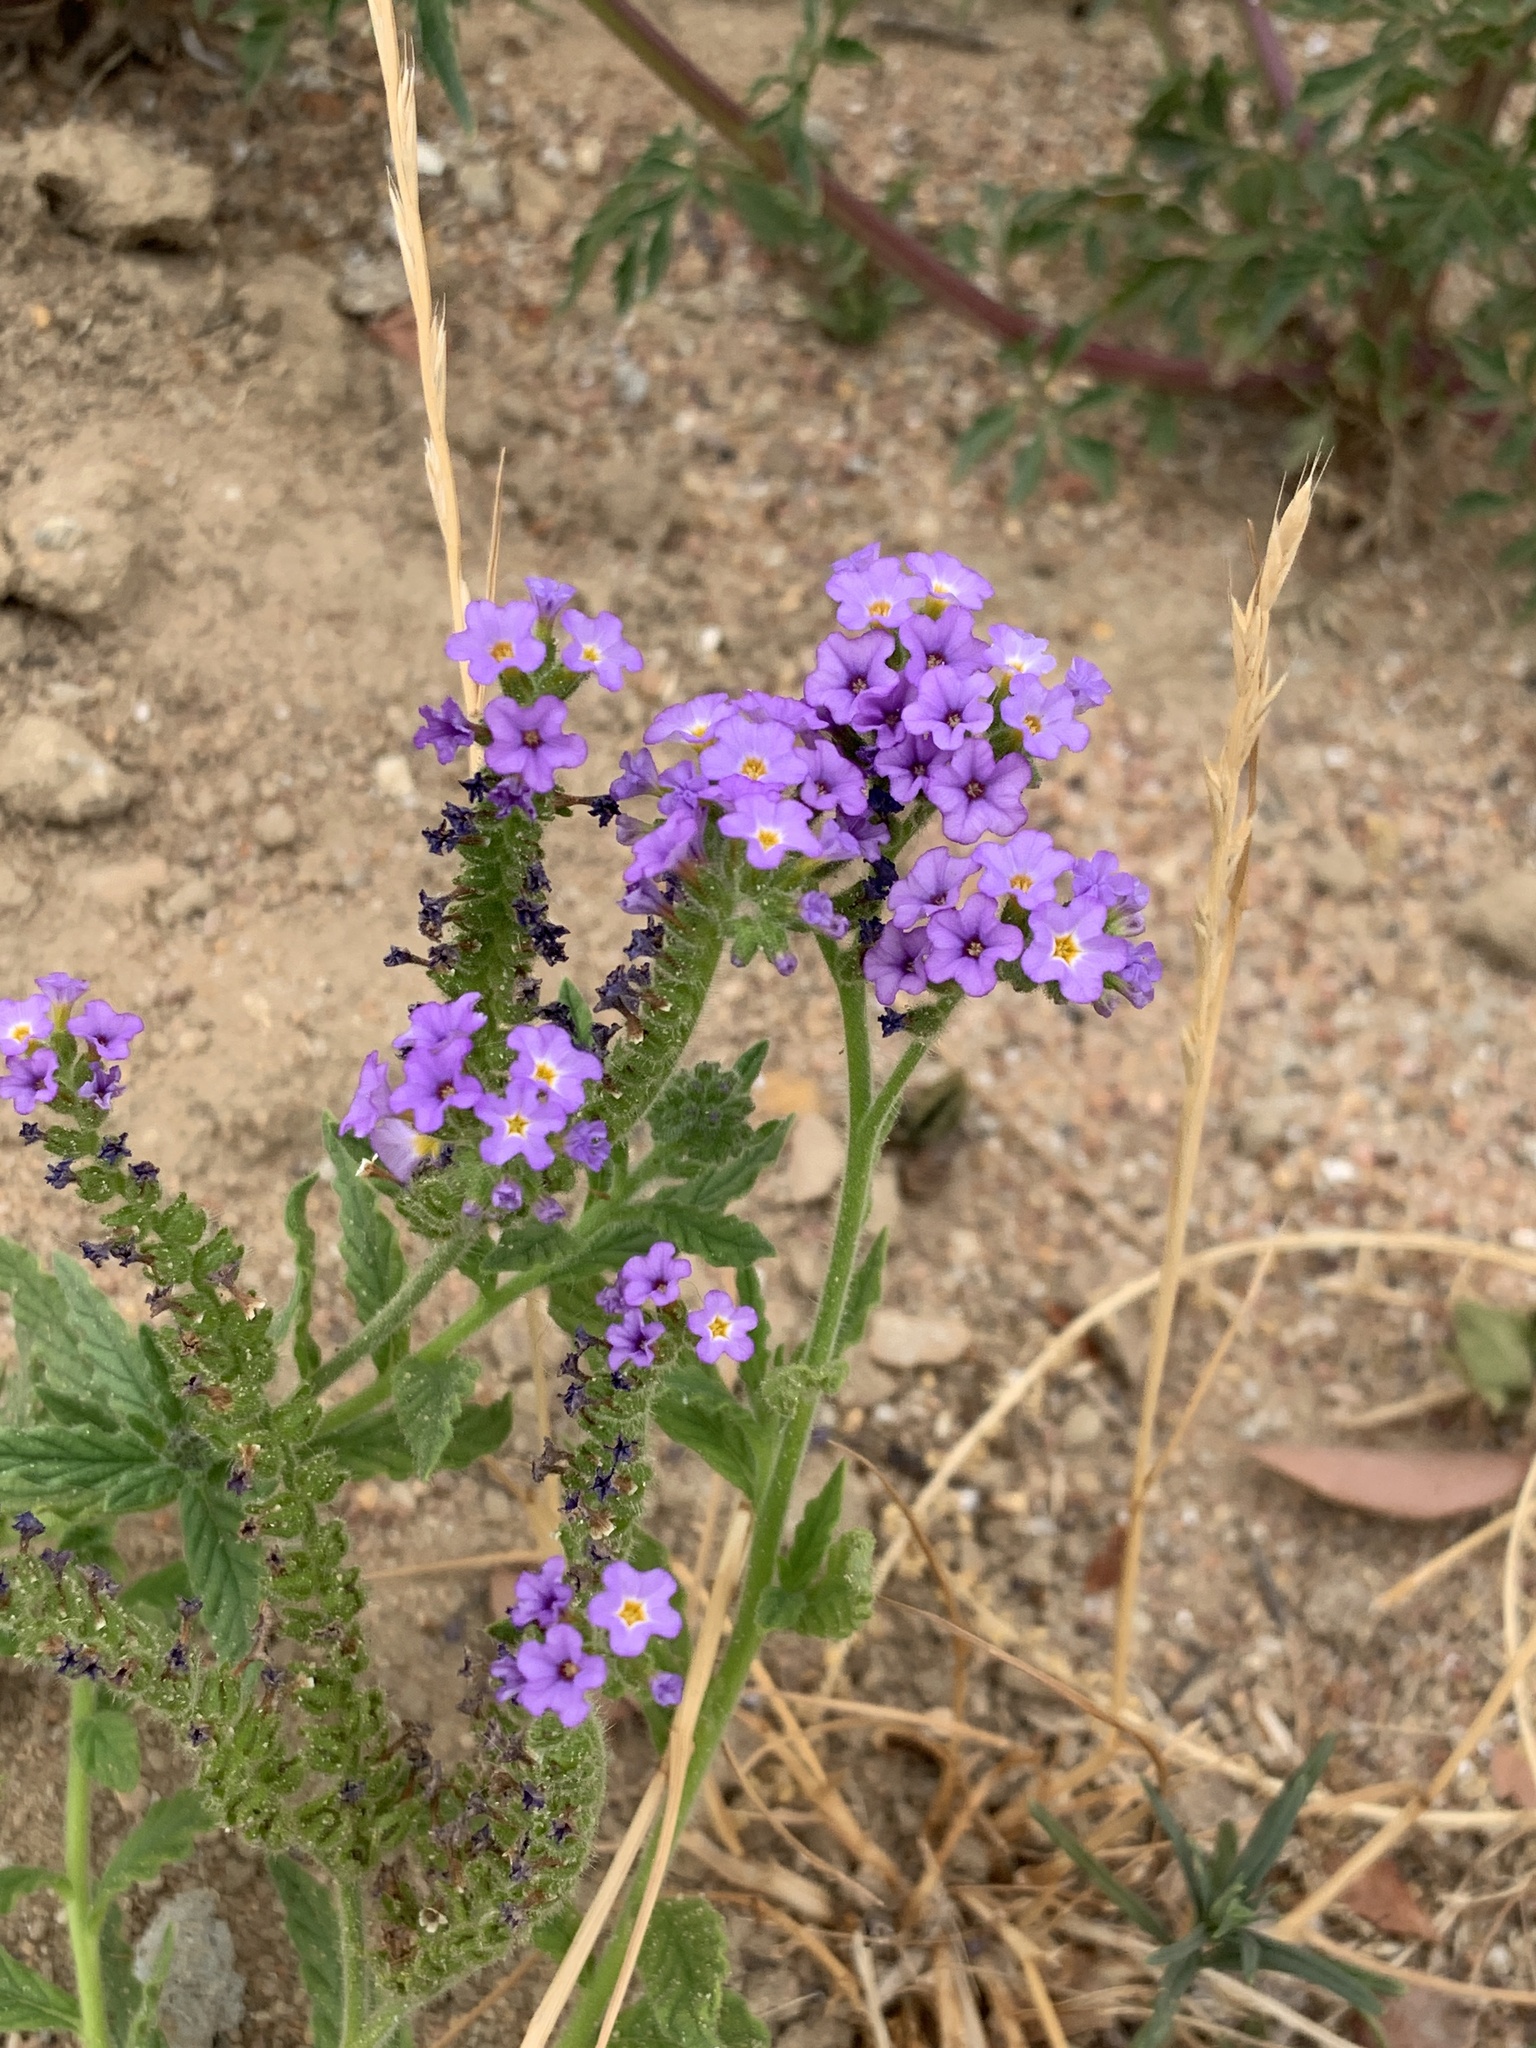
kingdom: Plantae
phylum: Tracheophyta
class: Magnoliopsida
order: Boraginales
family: Heliotropiaceae
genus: Heliotropium
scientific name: Heliotropium amplexicaule
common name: Clasping heliotrope
